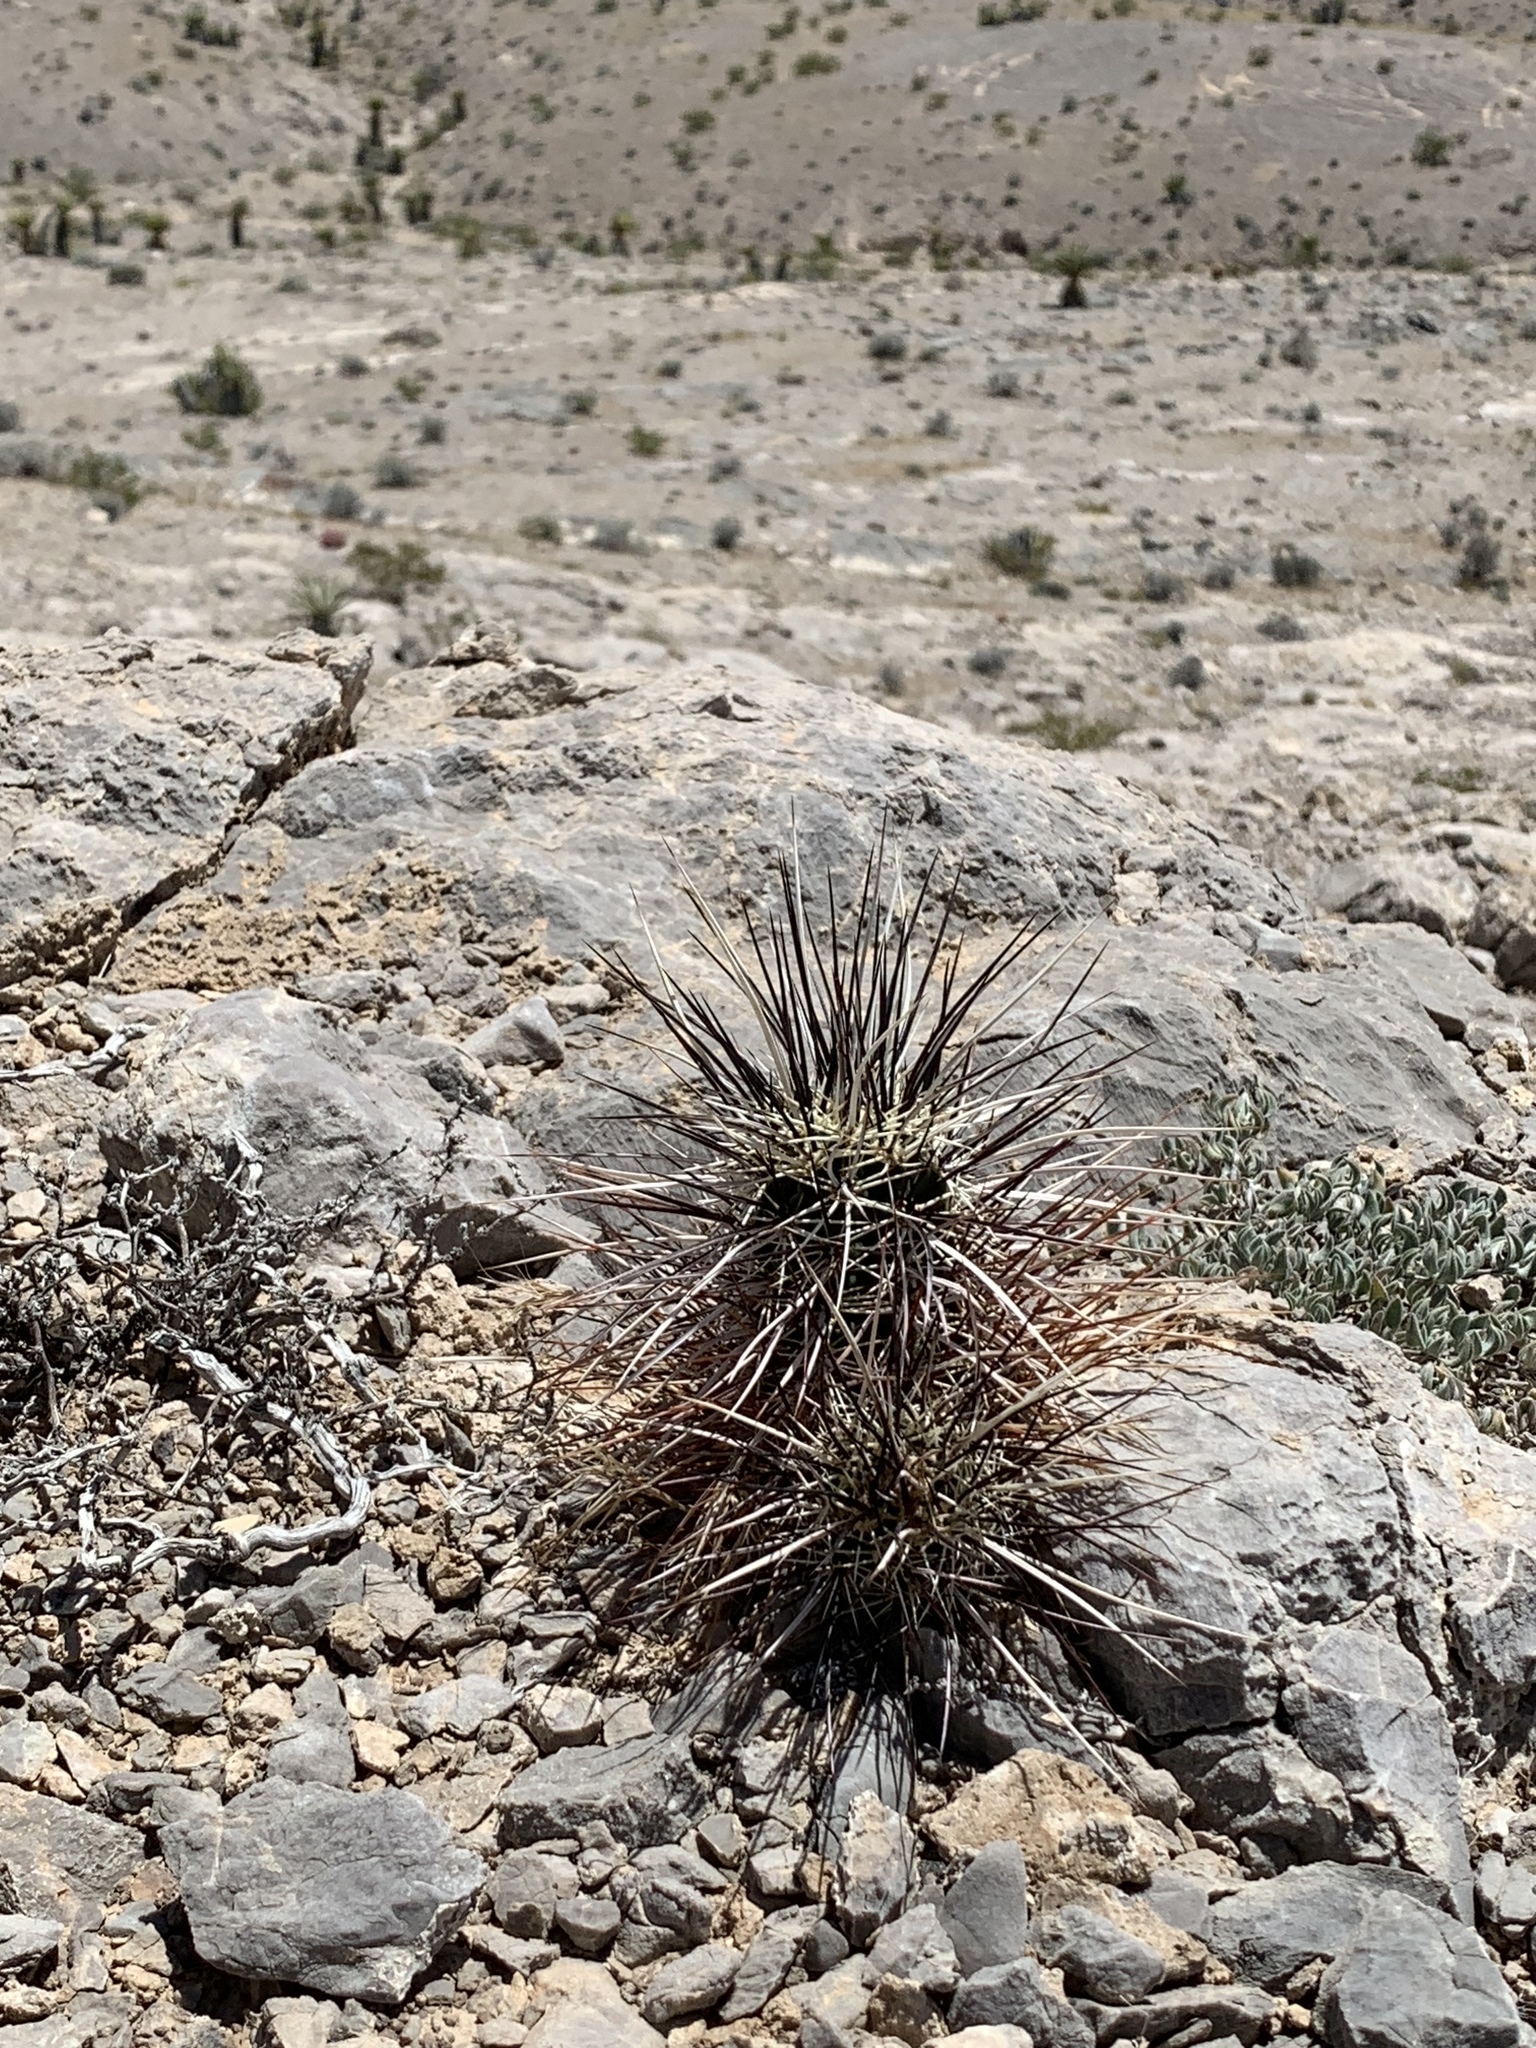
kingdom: Plantae
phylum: Tracheophyta
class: Magnoliopsida
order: Caryophyllales
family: Cactaceae
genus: Echinocereus
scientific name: Echinocereus engelmannii
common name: Engelmann's hedgehog cactus
